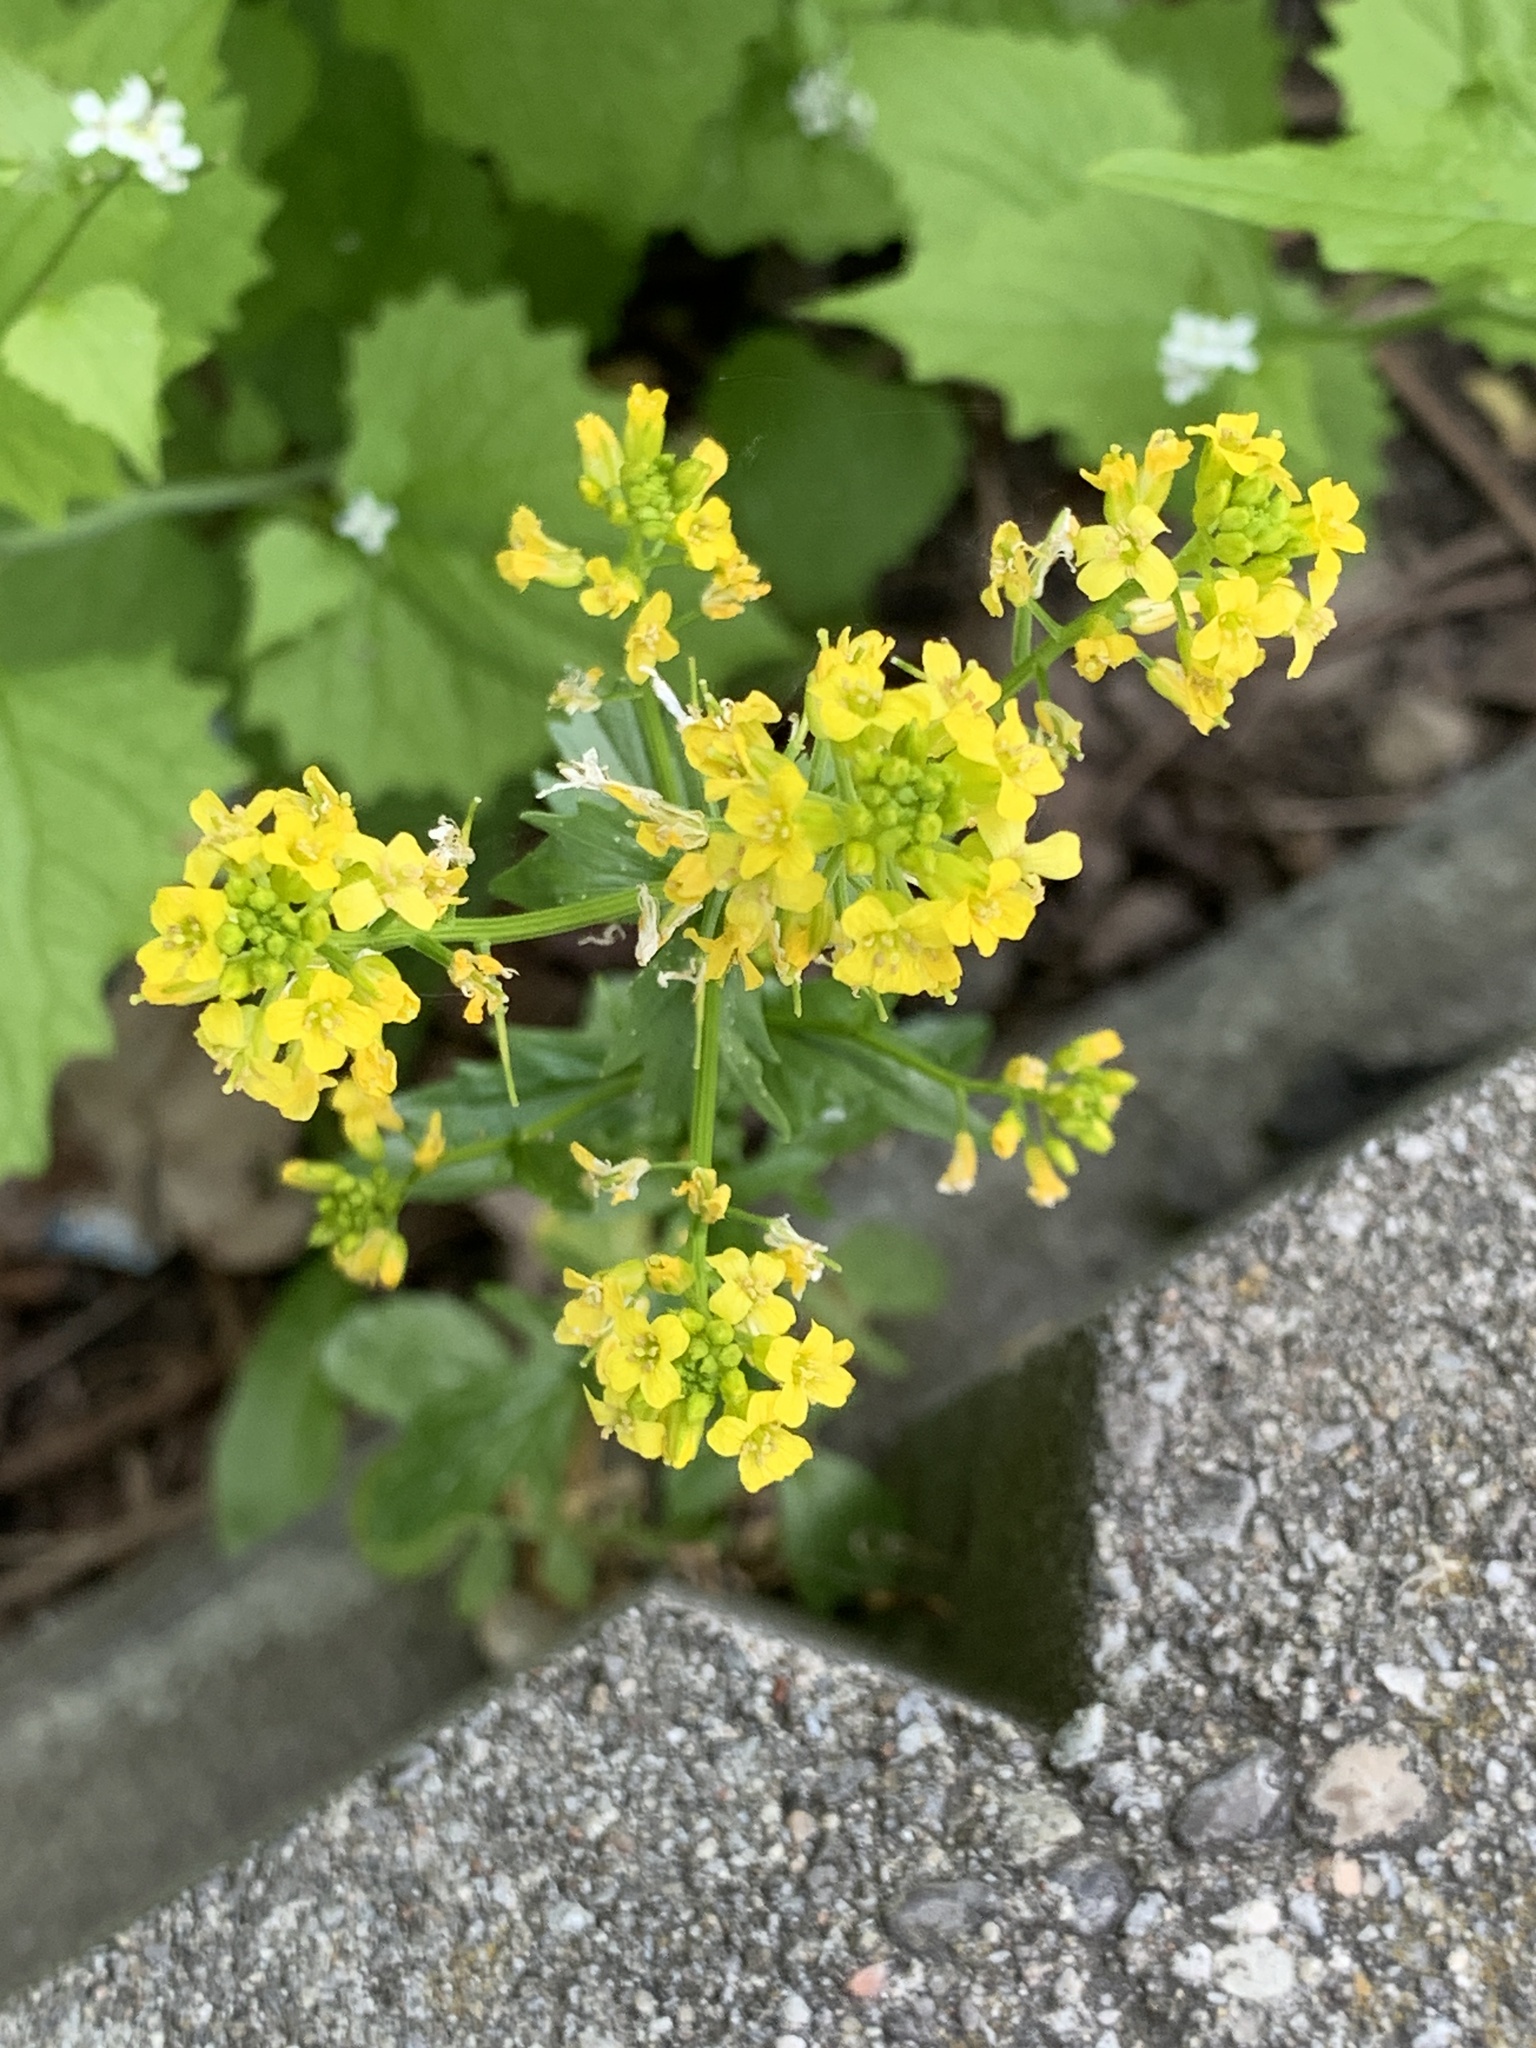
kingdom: Plantae
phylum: Tracheophyta
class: Magnoliopsida
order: Brassicales
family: Brassicaceae
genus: Barbarea
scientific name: Barbarea vulgaris
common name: Cressy-greens
